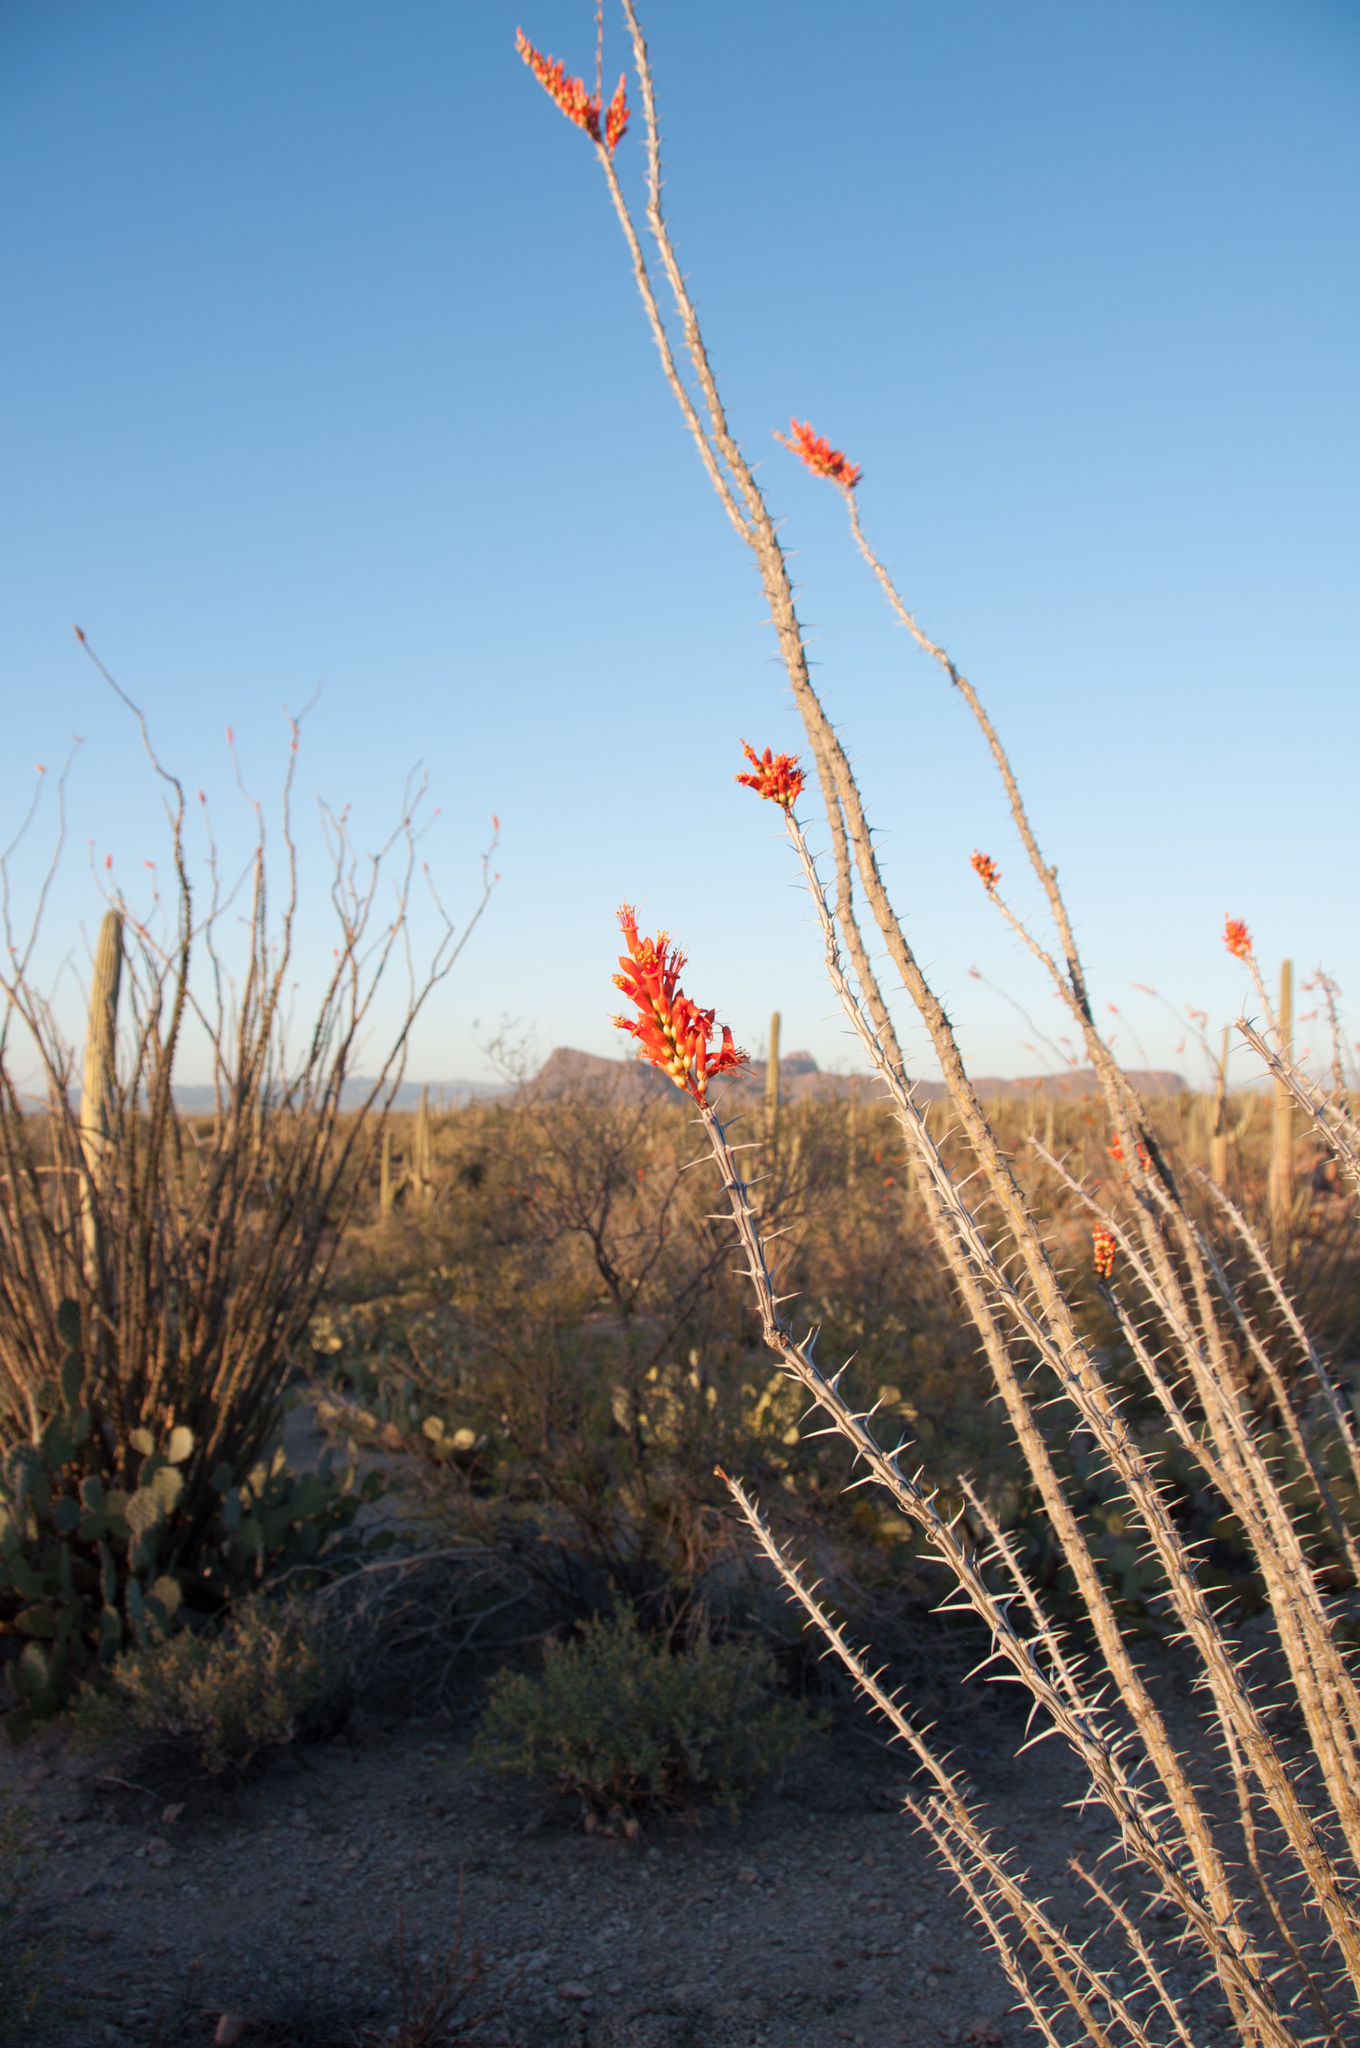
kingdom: Plantae
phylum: Tracheophyta
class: Magnoliopsida
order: Ericales
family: Fouquieriaceae
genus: Fouquieria
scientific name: Fouquieria splendens
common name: Vine-cactus
